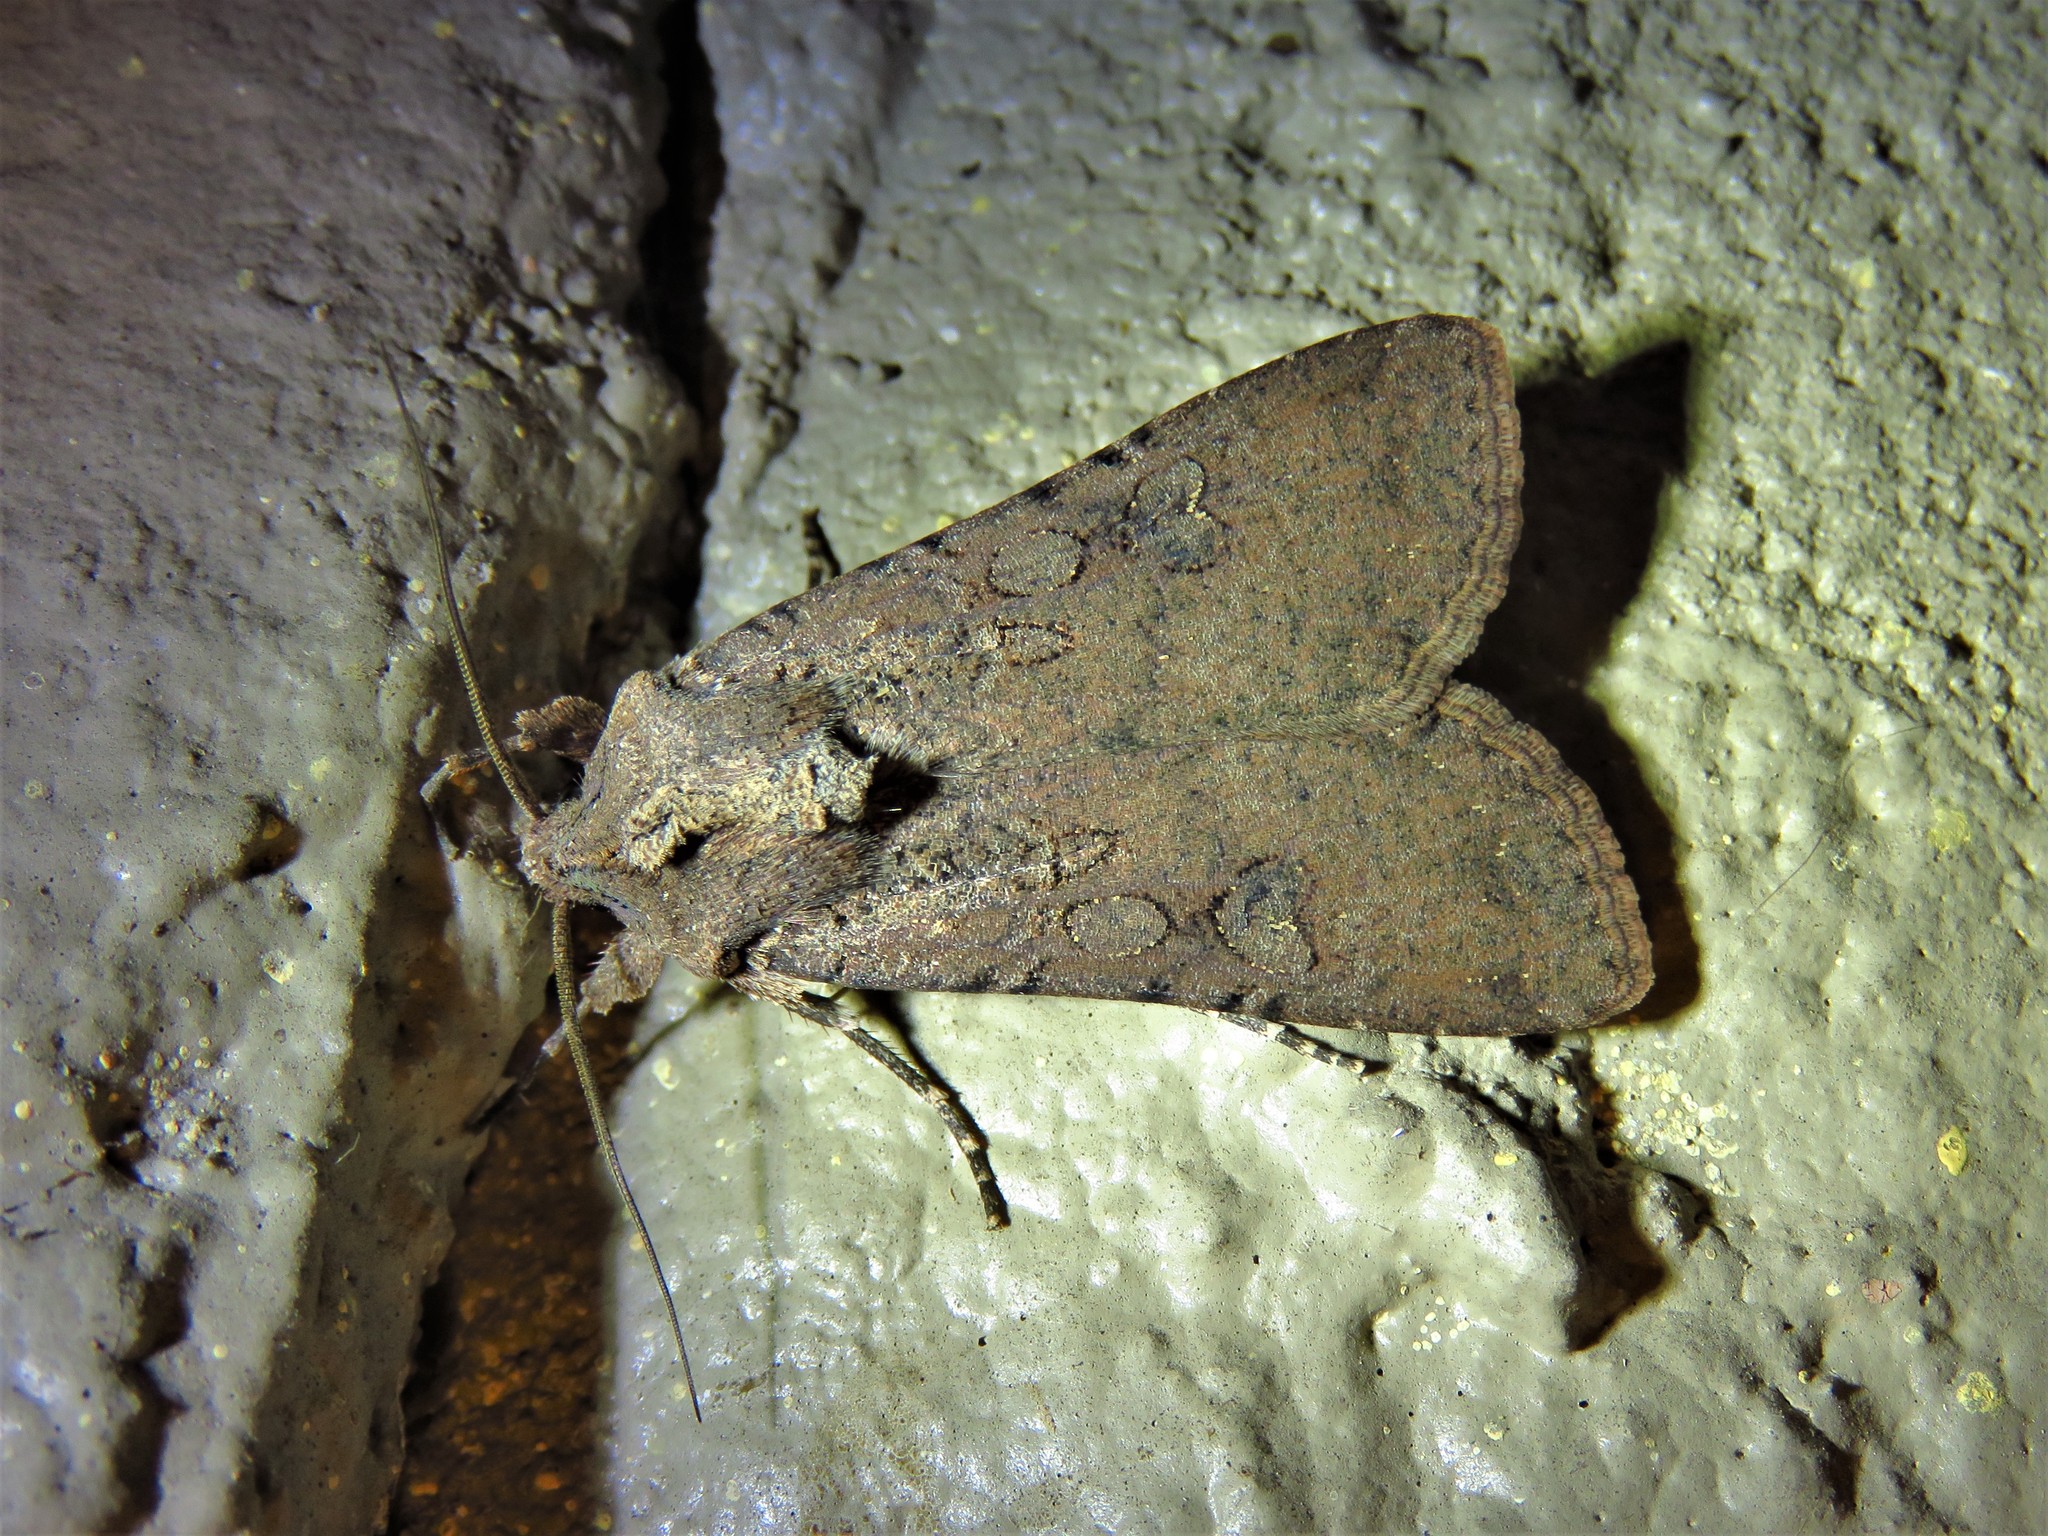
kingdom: Animalia
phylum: Arthropoda
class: Insecta
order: Lepidoptera
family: Noctuidae
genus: Peridroma
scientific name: Peridroma saucia
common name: Pearly underwing
